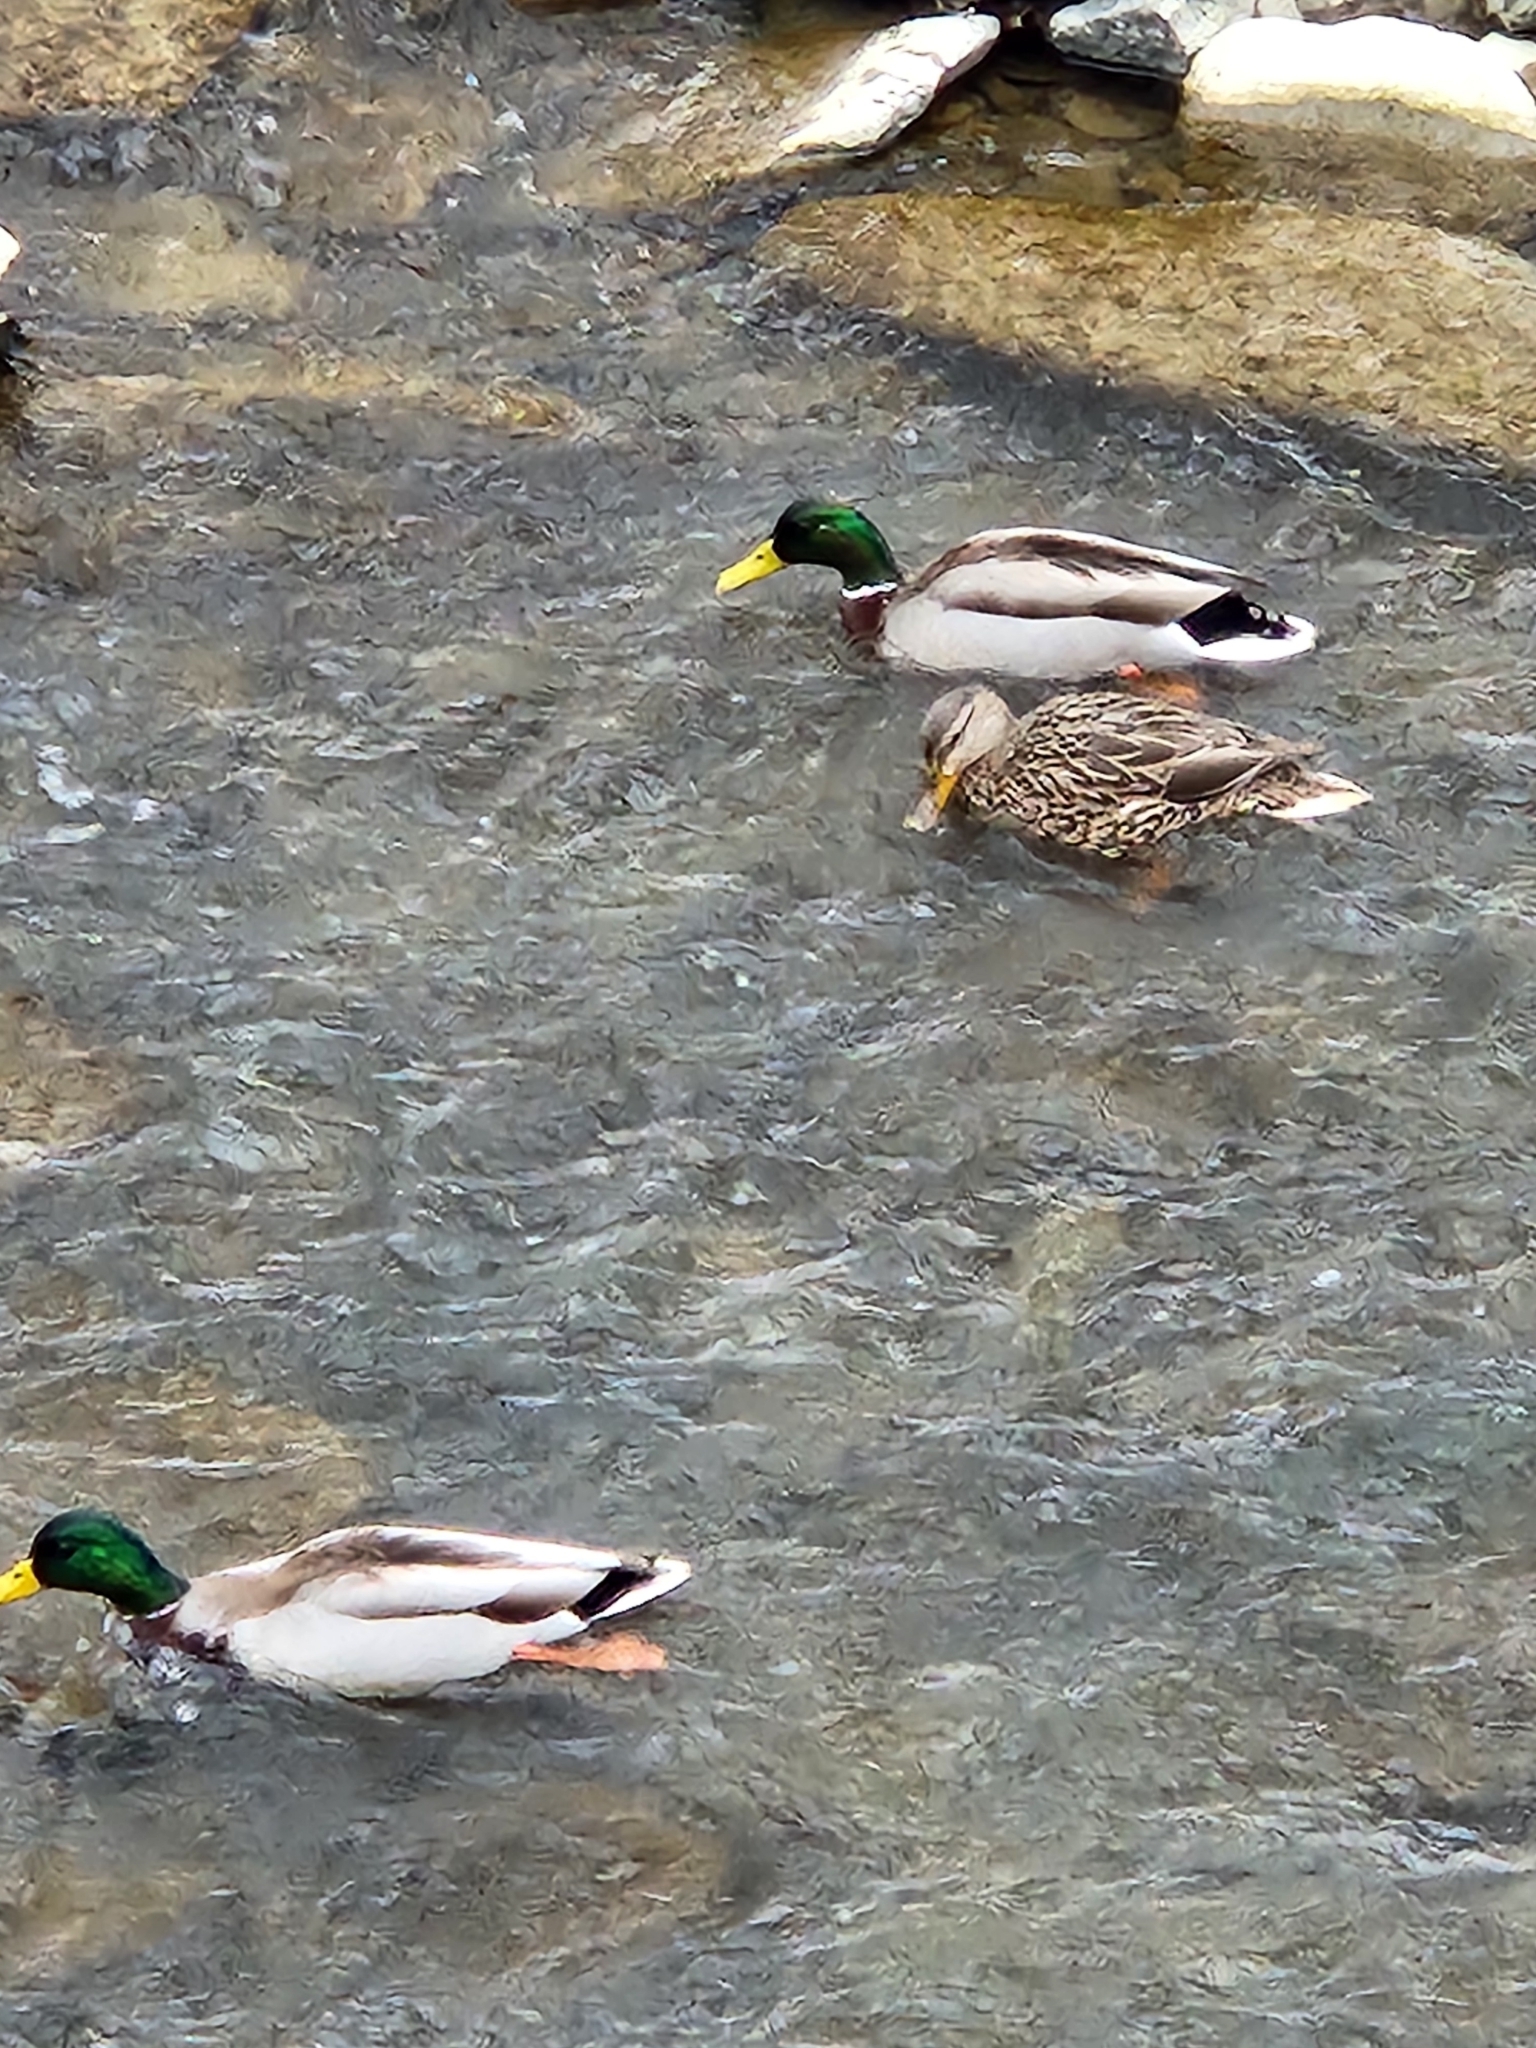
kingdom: Animalia
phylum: Chordata
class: Aves
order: Anseriformes
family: Anatidae
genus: Anas
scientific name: Anas platyrhynchos
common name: Mallard
